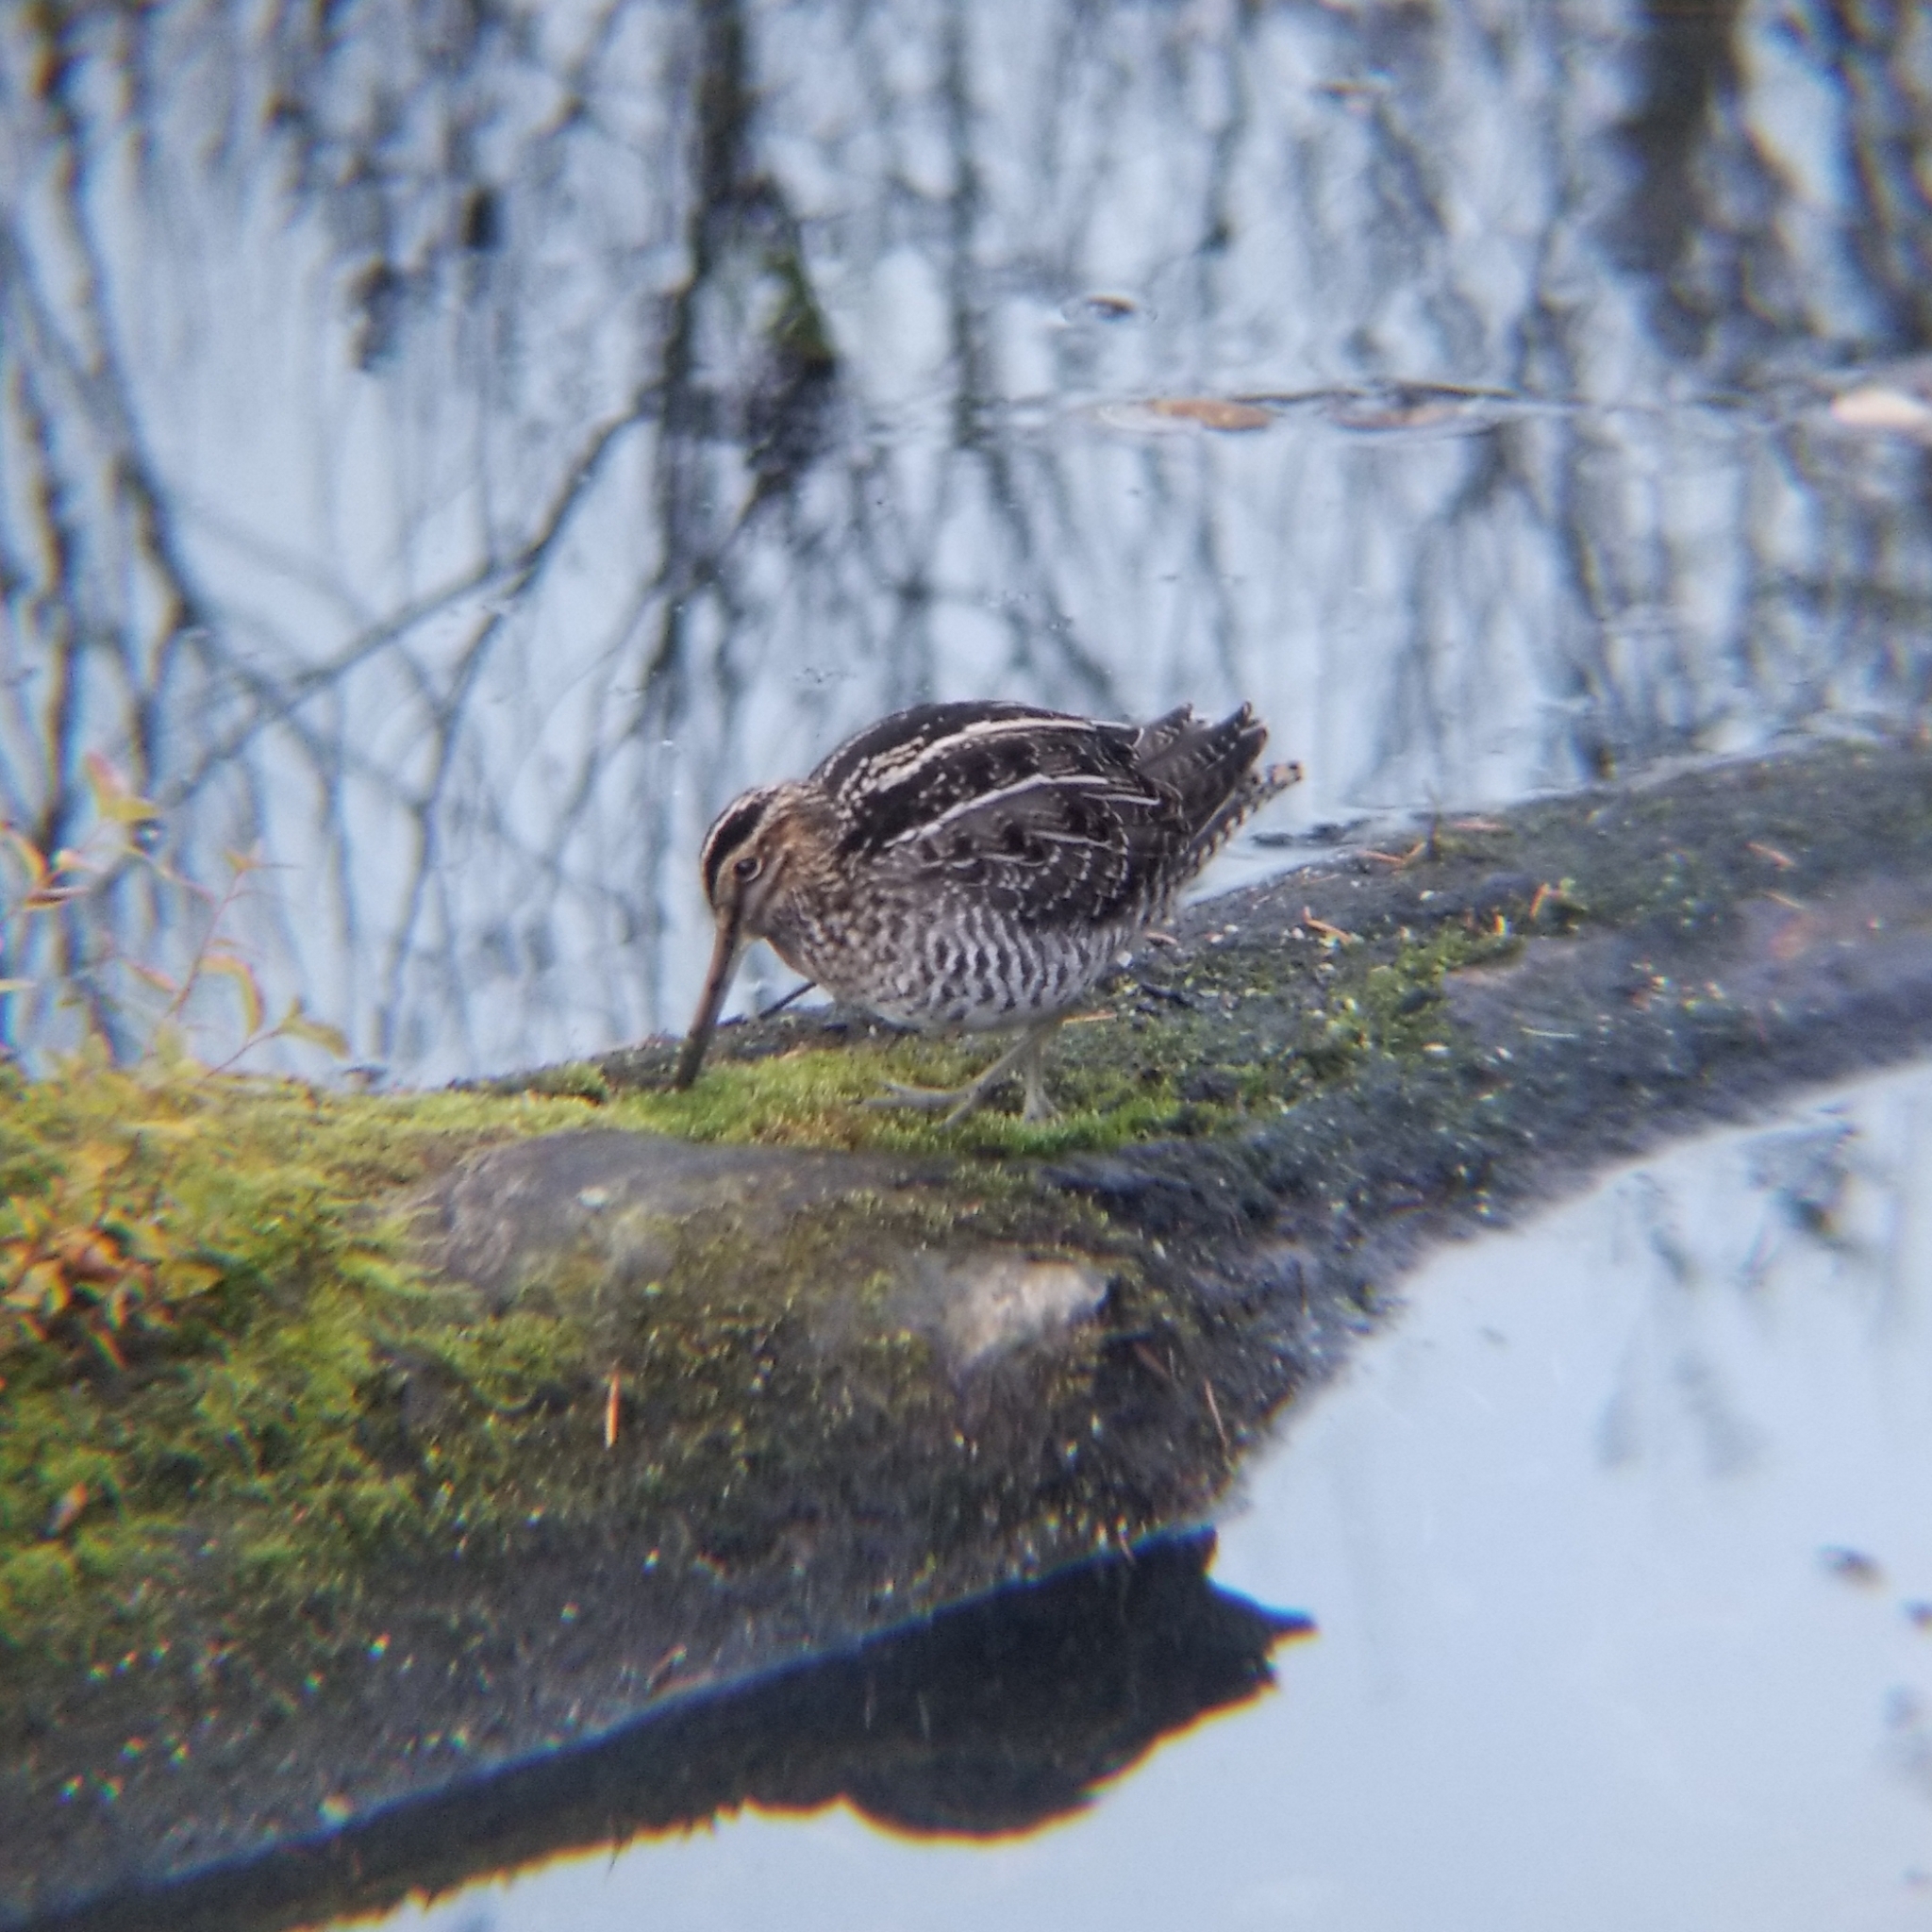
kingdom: Animalia
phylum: Chordata
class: Aves
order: Charadriiformes
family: Scolopacidae
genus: Gallinago
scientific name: Gallinago delicata
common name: Wilson's snipe
